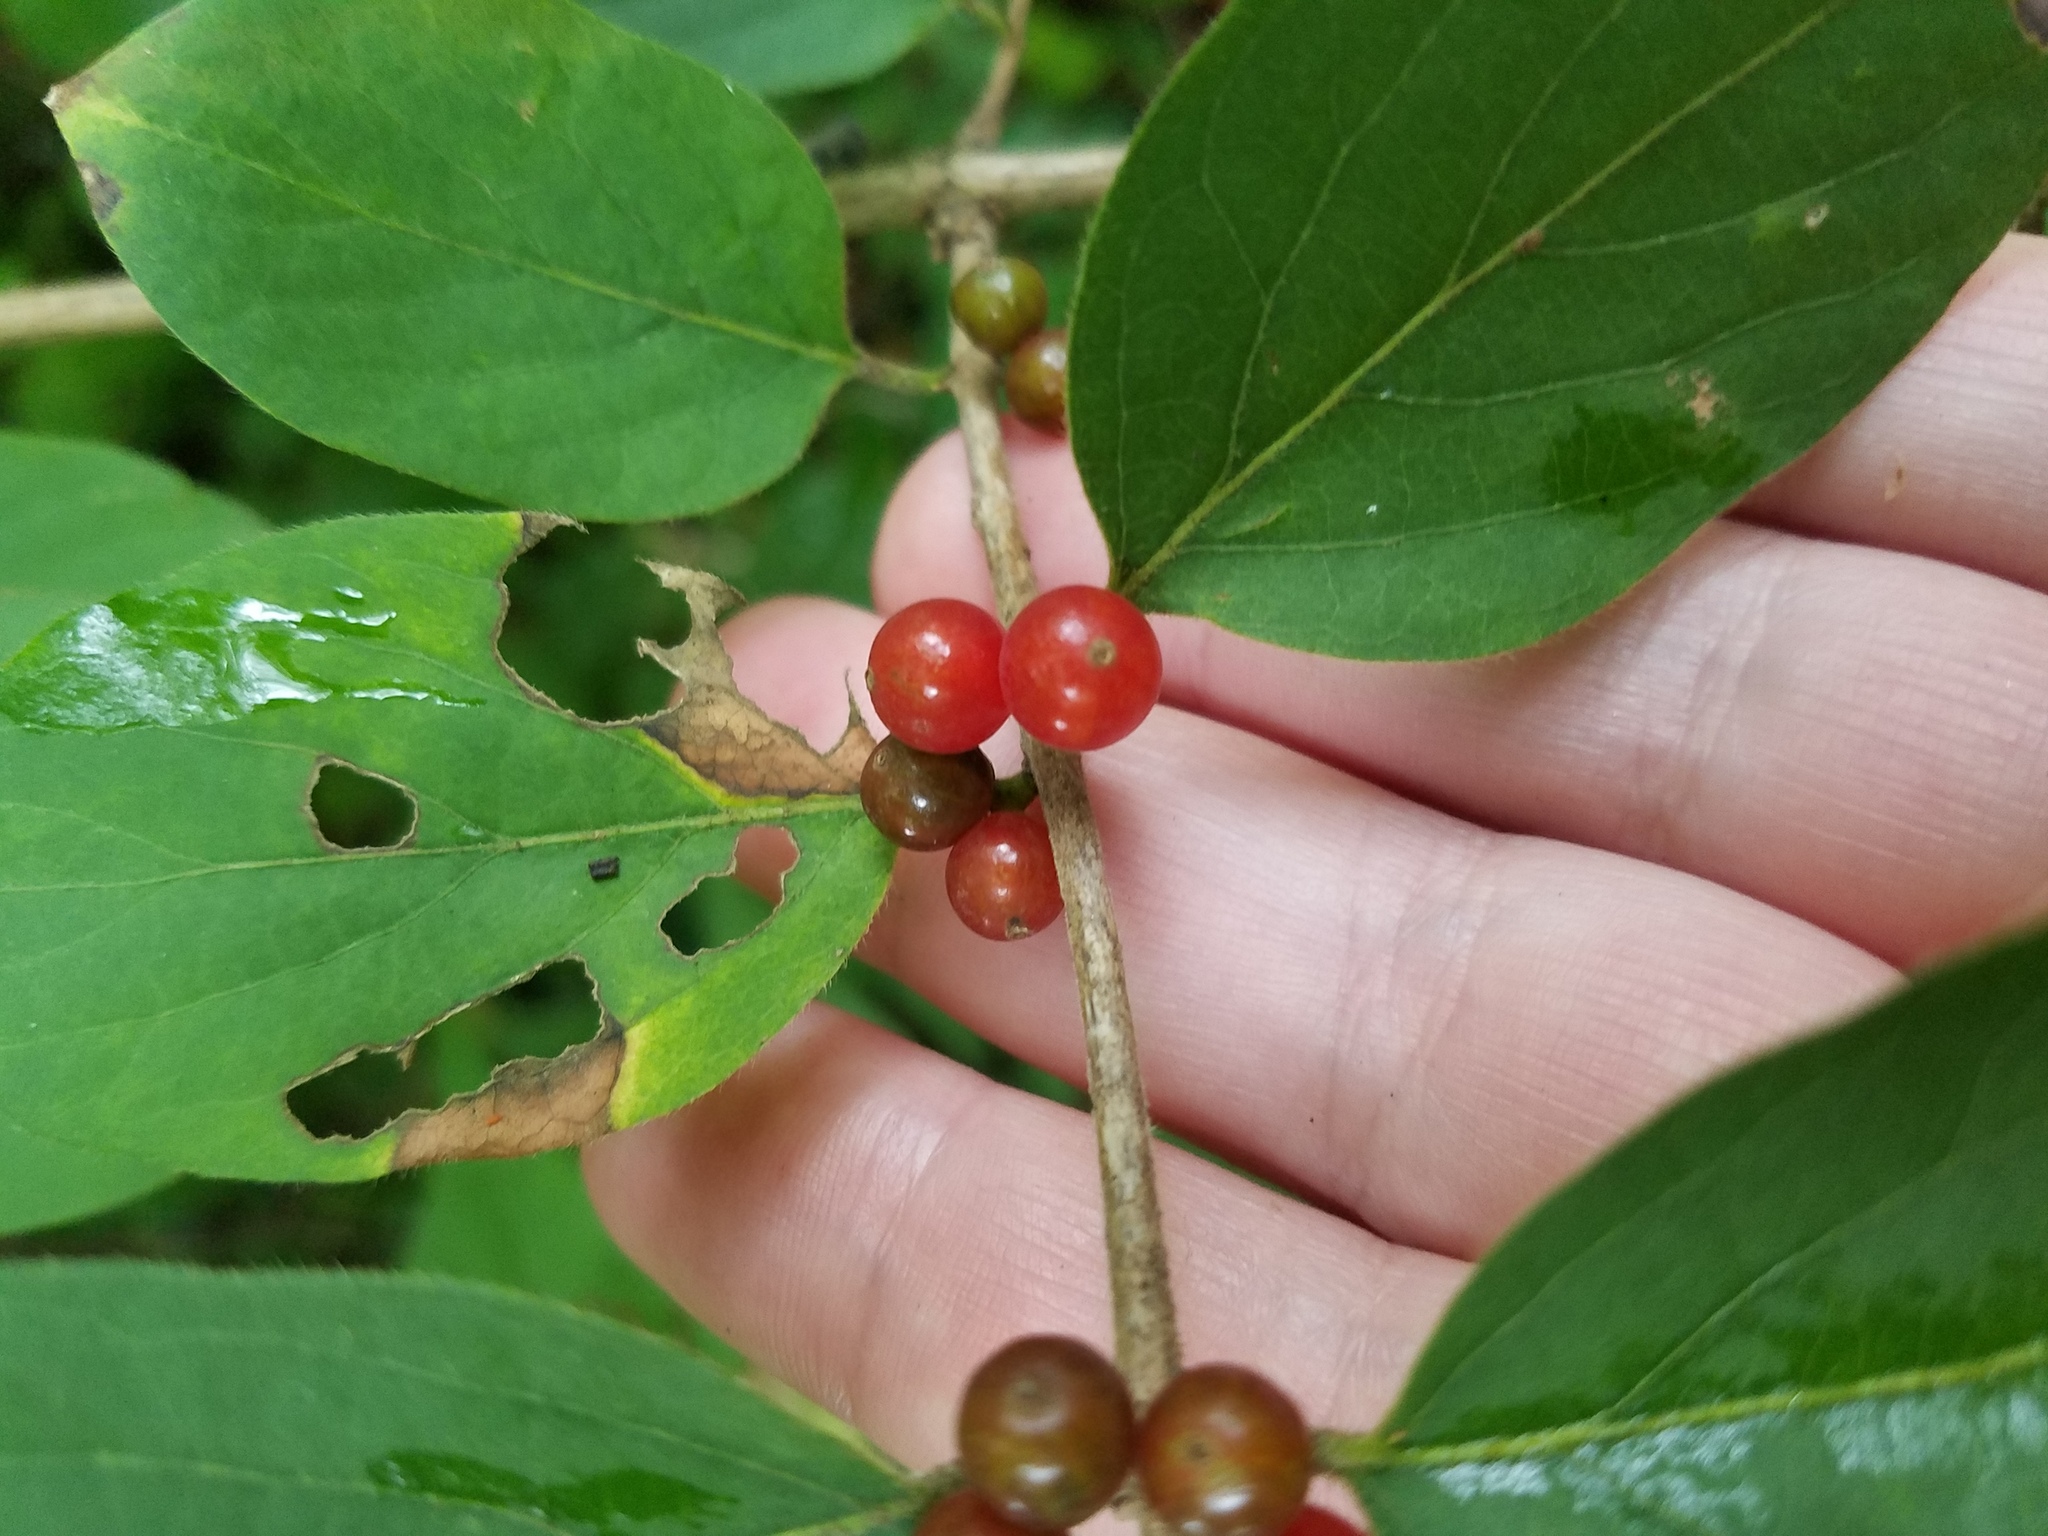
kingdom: Plantae
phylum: Tracheophyta
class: Magnoliopsida
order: Dipsacales
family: Caprifoliaceae
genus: Lonicera
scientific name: Lonicera maackii
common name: Amur honeysuckle
